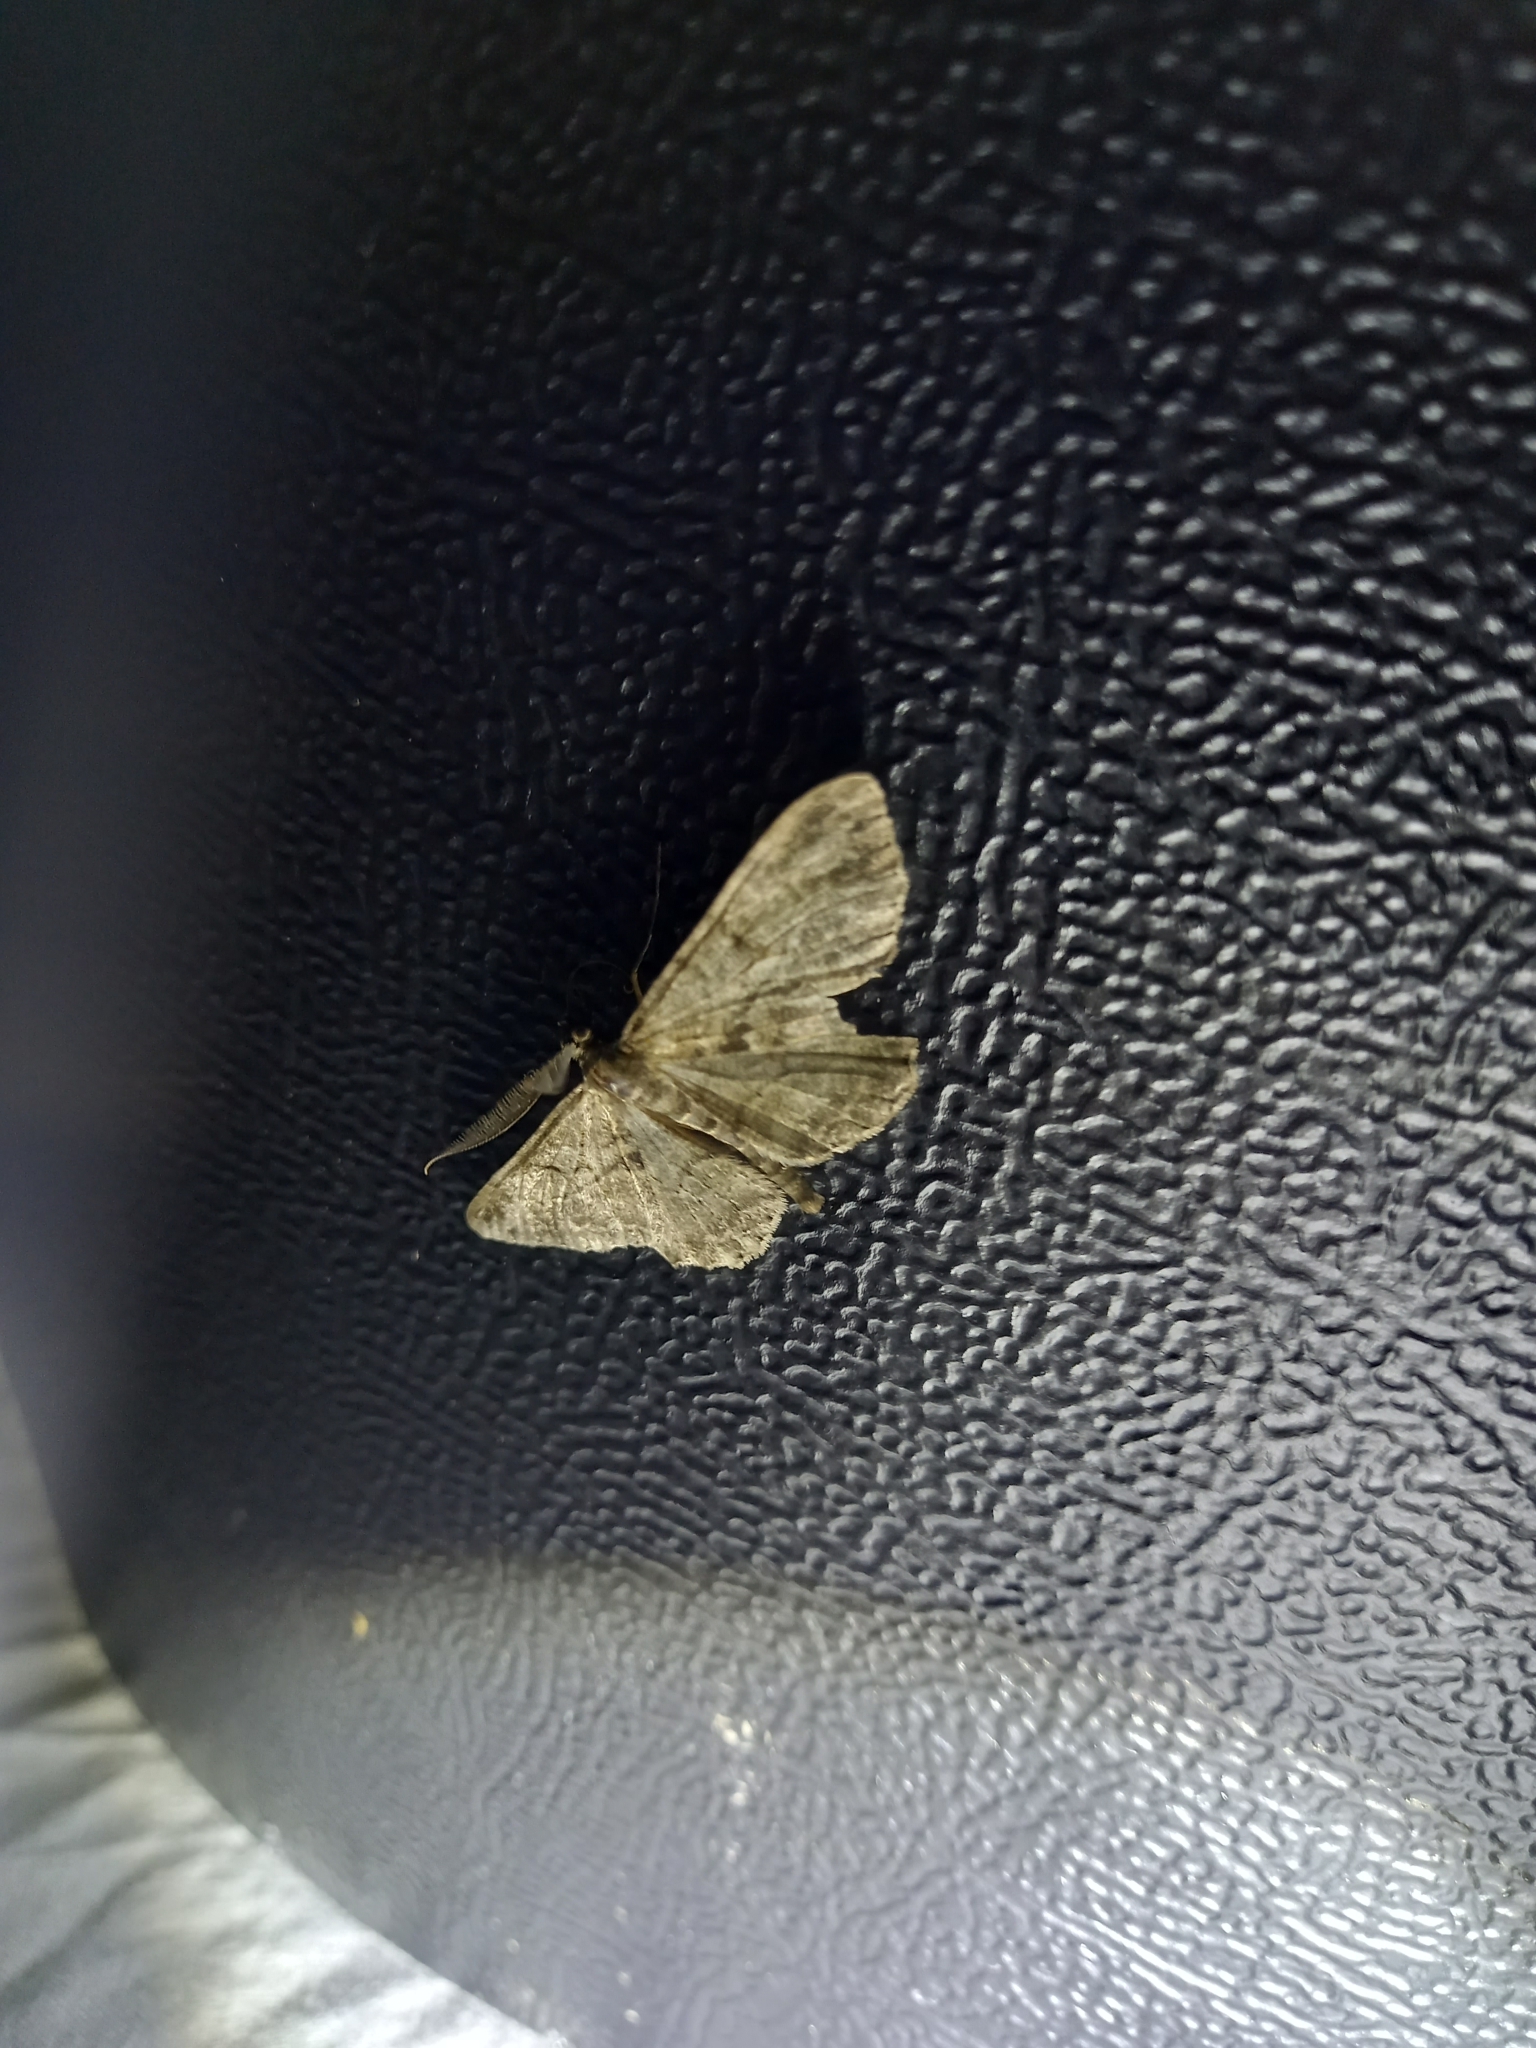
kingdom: Animalia
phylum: Arthropoda
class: Insecta
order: Lepidoptera
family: Geometridae
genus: Peribatodes
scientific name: Peribatodes rhomboidaria
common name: Willow beauty
